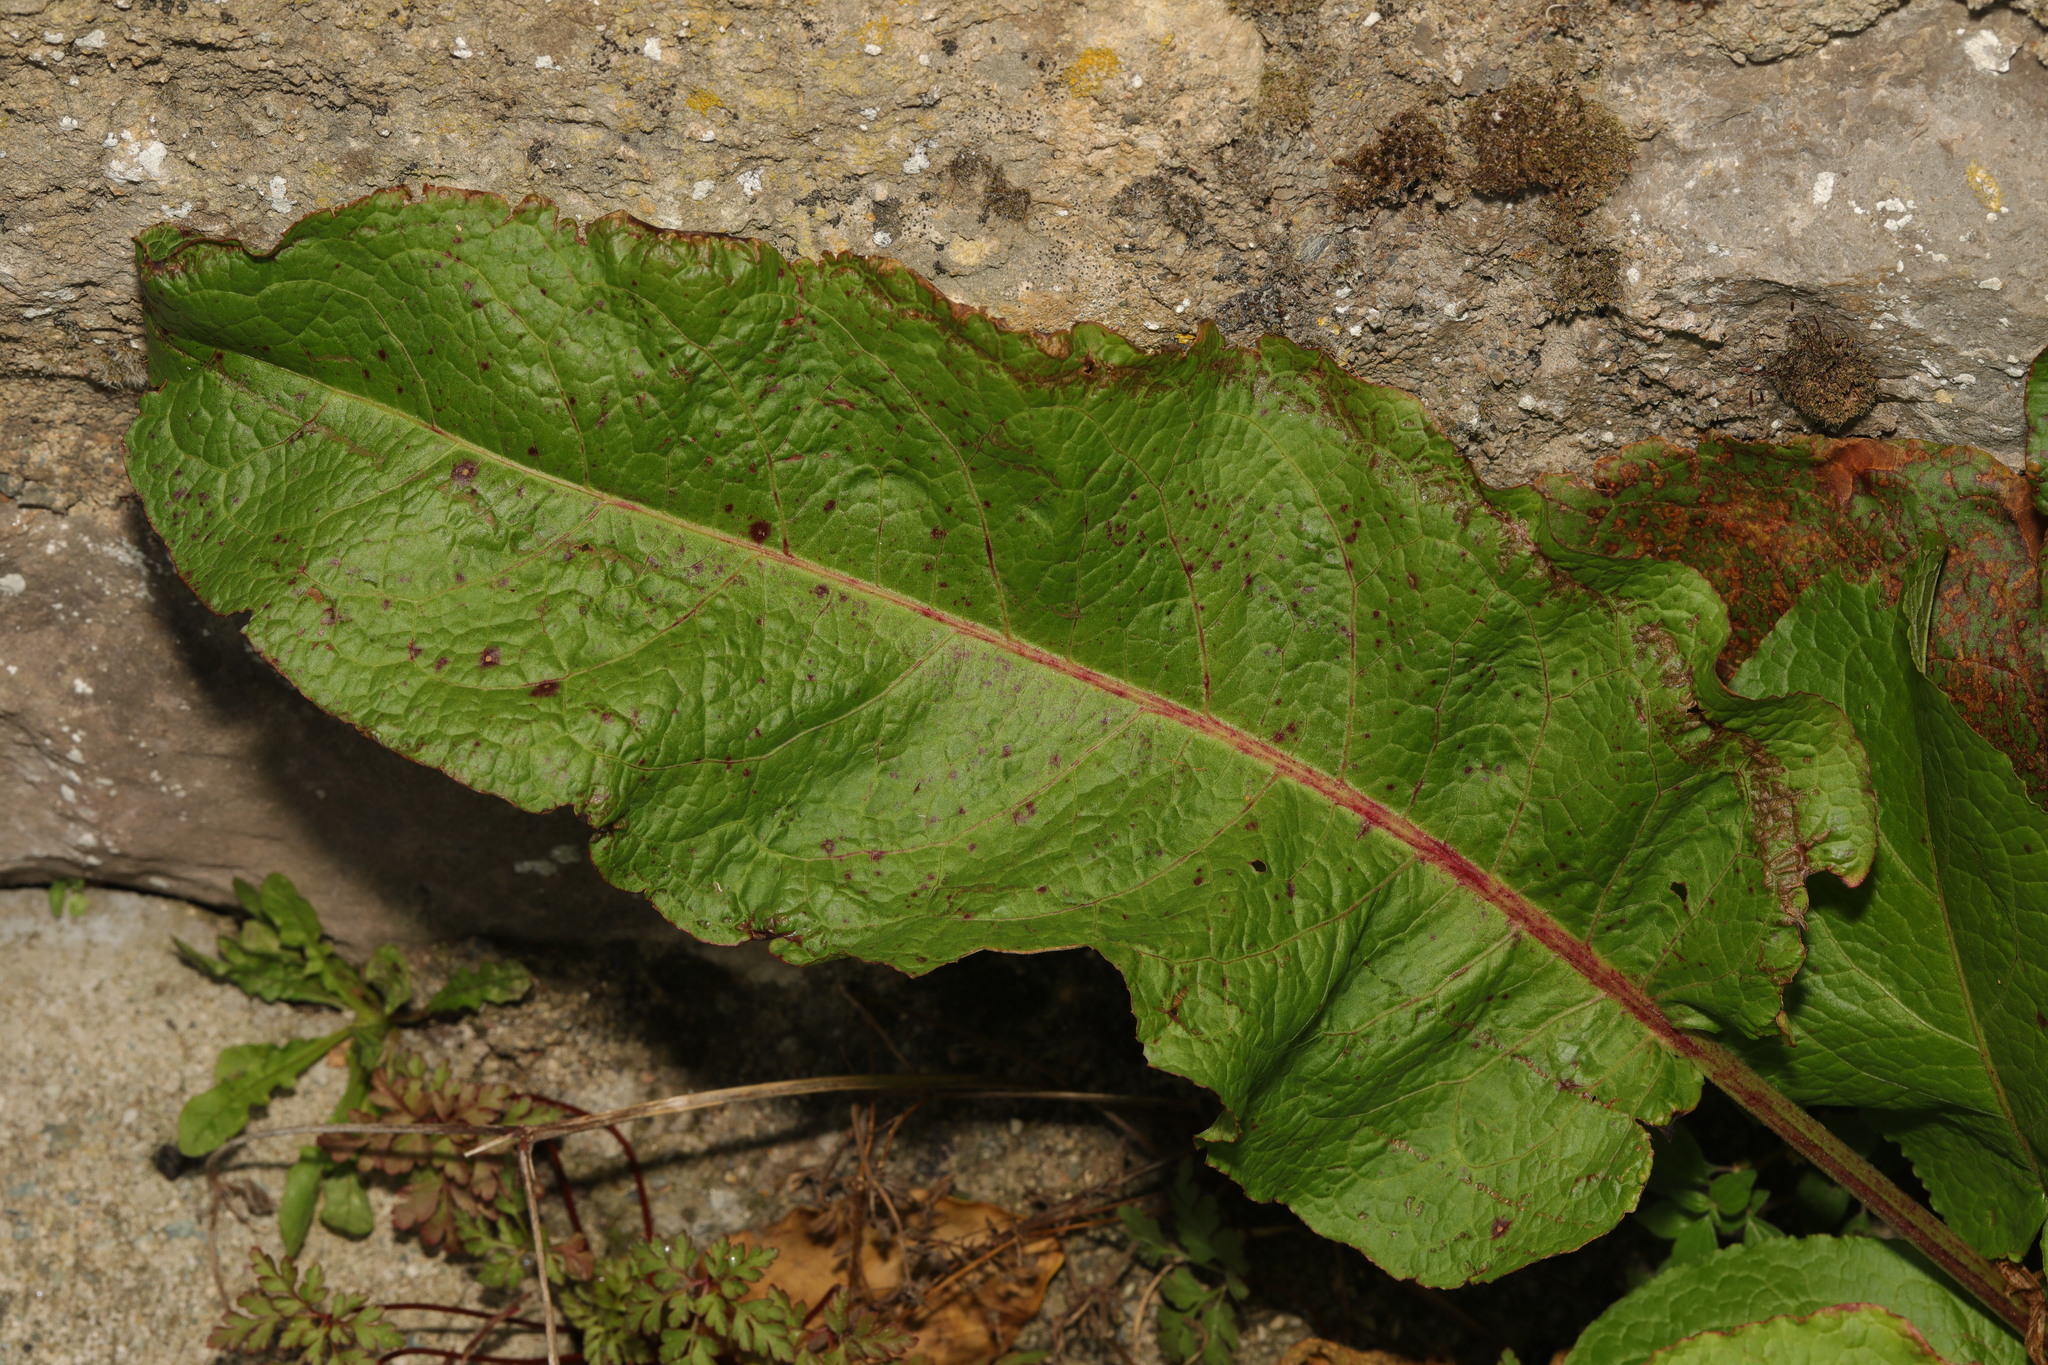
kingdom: Plantae
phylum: Tracheophyta
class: Magnoliopsida
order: Caryophyllales
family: Polygonaceae
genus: Rumex
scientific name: Rumex obtusifolius
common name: Bitter dock
